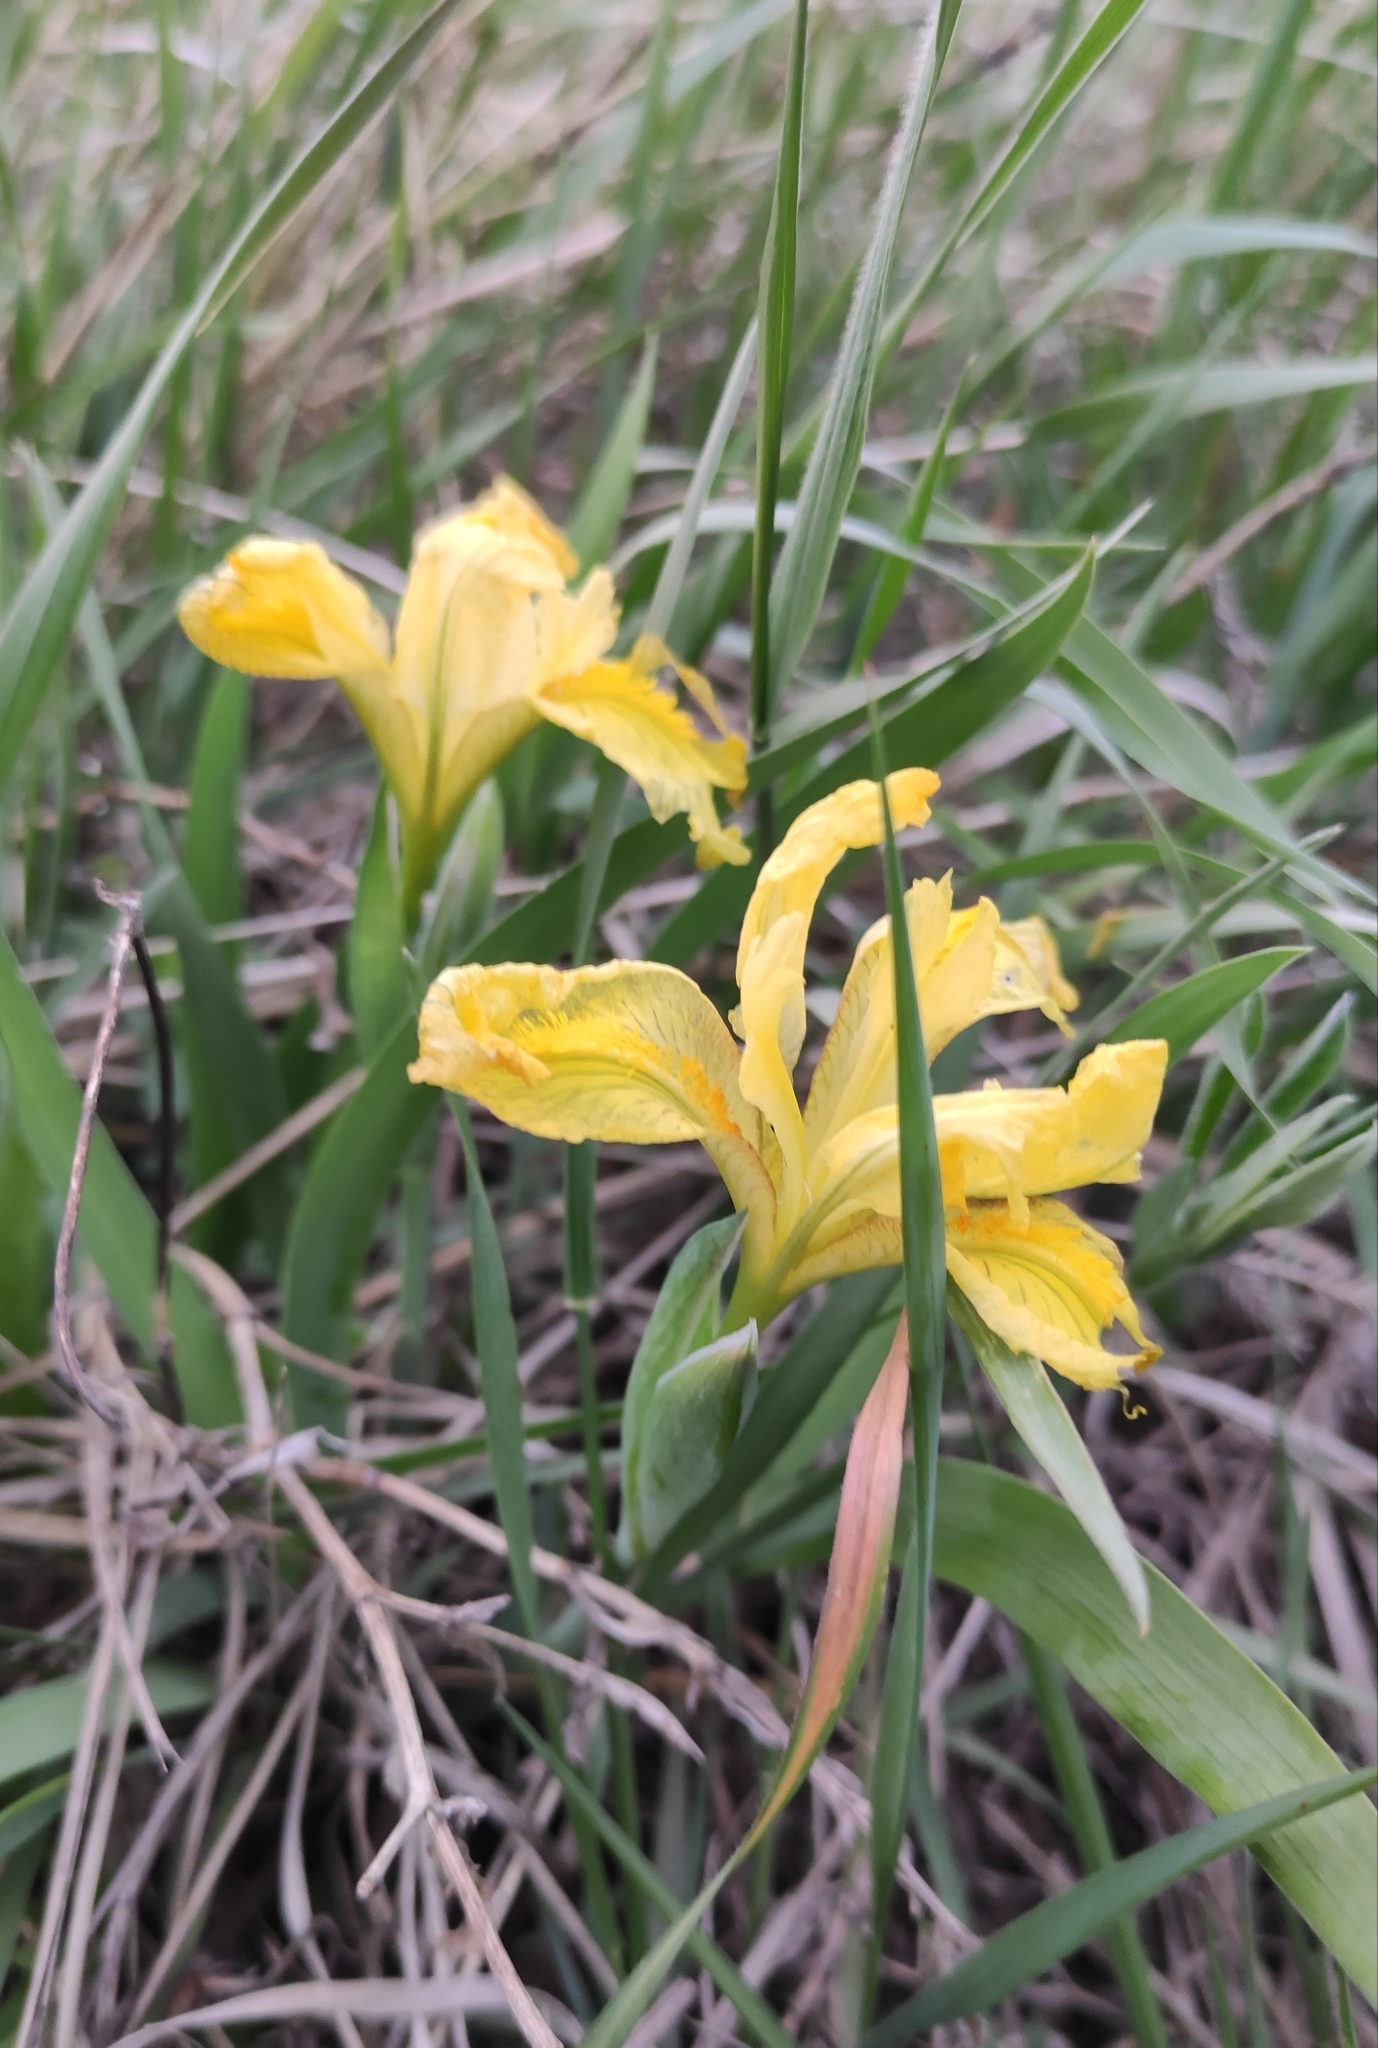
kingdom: Plantae
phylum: Tracheophyta
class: Liliopsida
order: Asparagales
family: Iridaceae
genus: Iris
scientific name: Iris humilis
